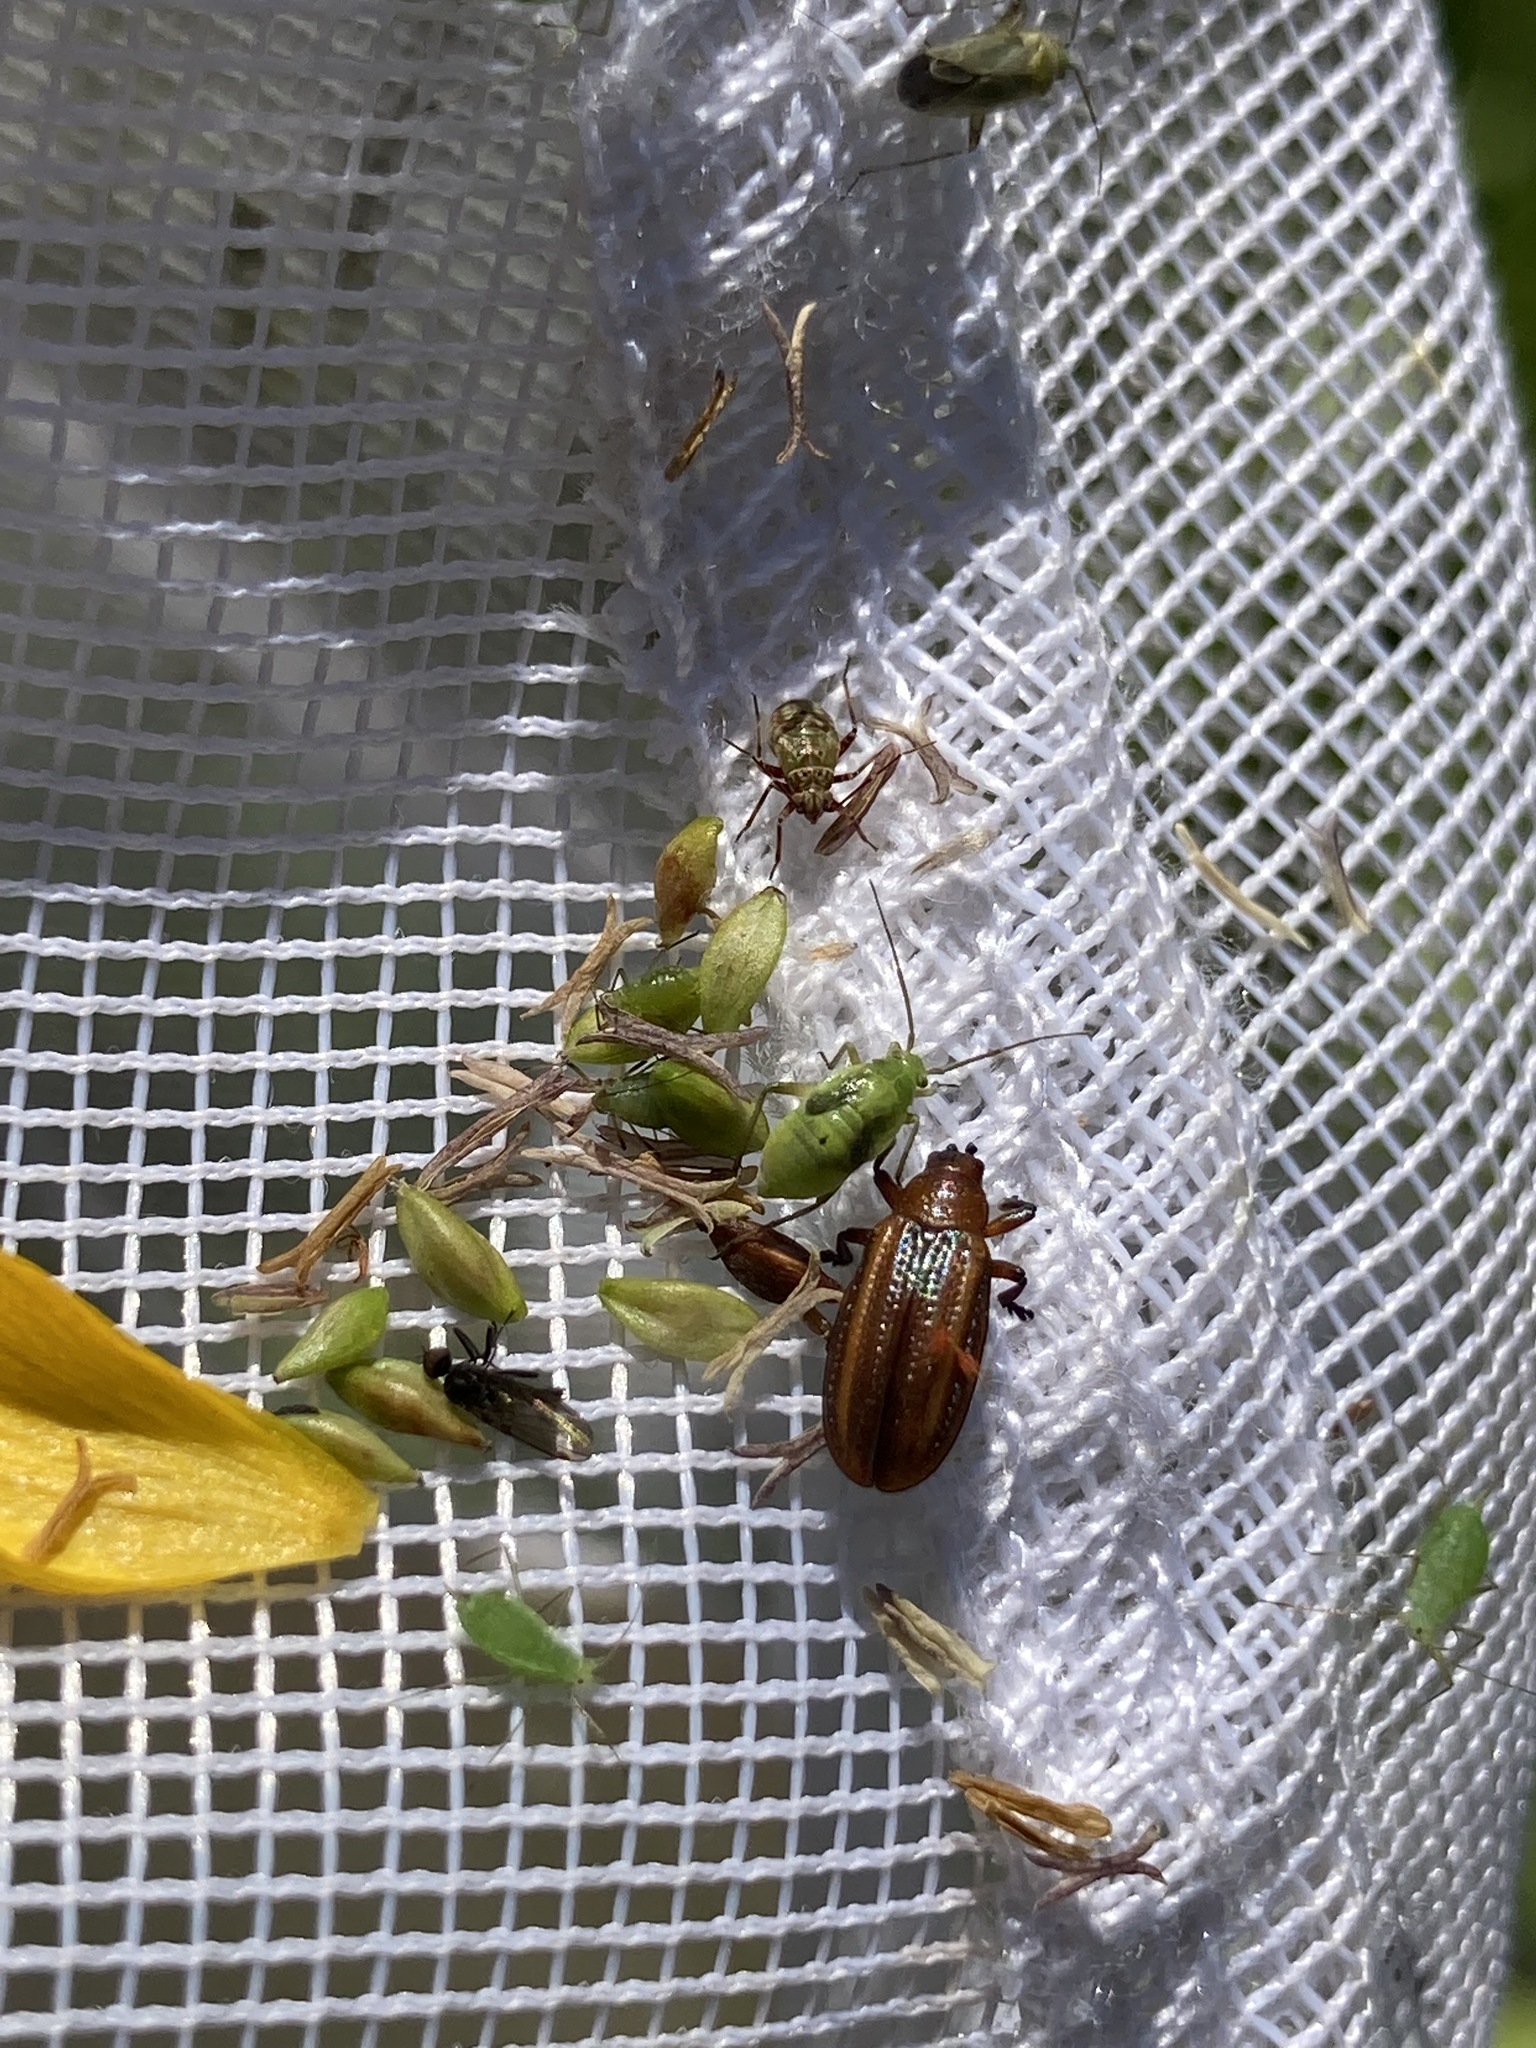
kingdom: Animalia
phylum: Arthropoda
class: Insecta
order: Coleoptera
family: Chrysomelidae
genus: Microrhopala
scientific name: Microrhopala vittata
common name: Goldenrod leaf miner beetle
